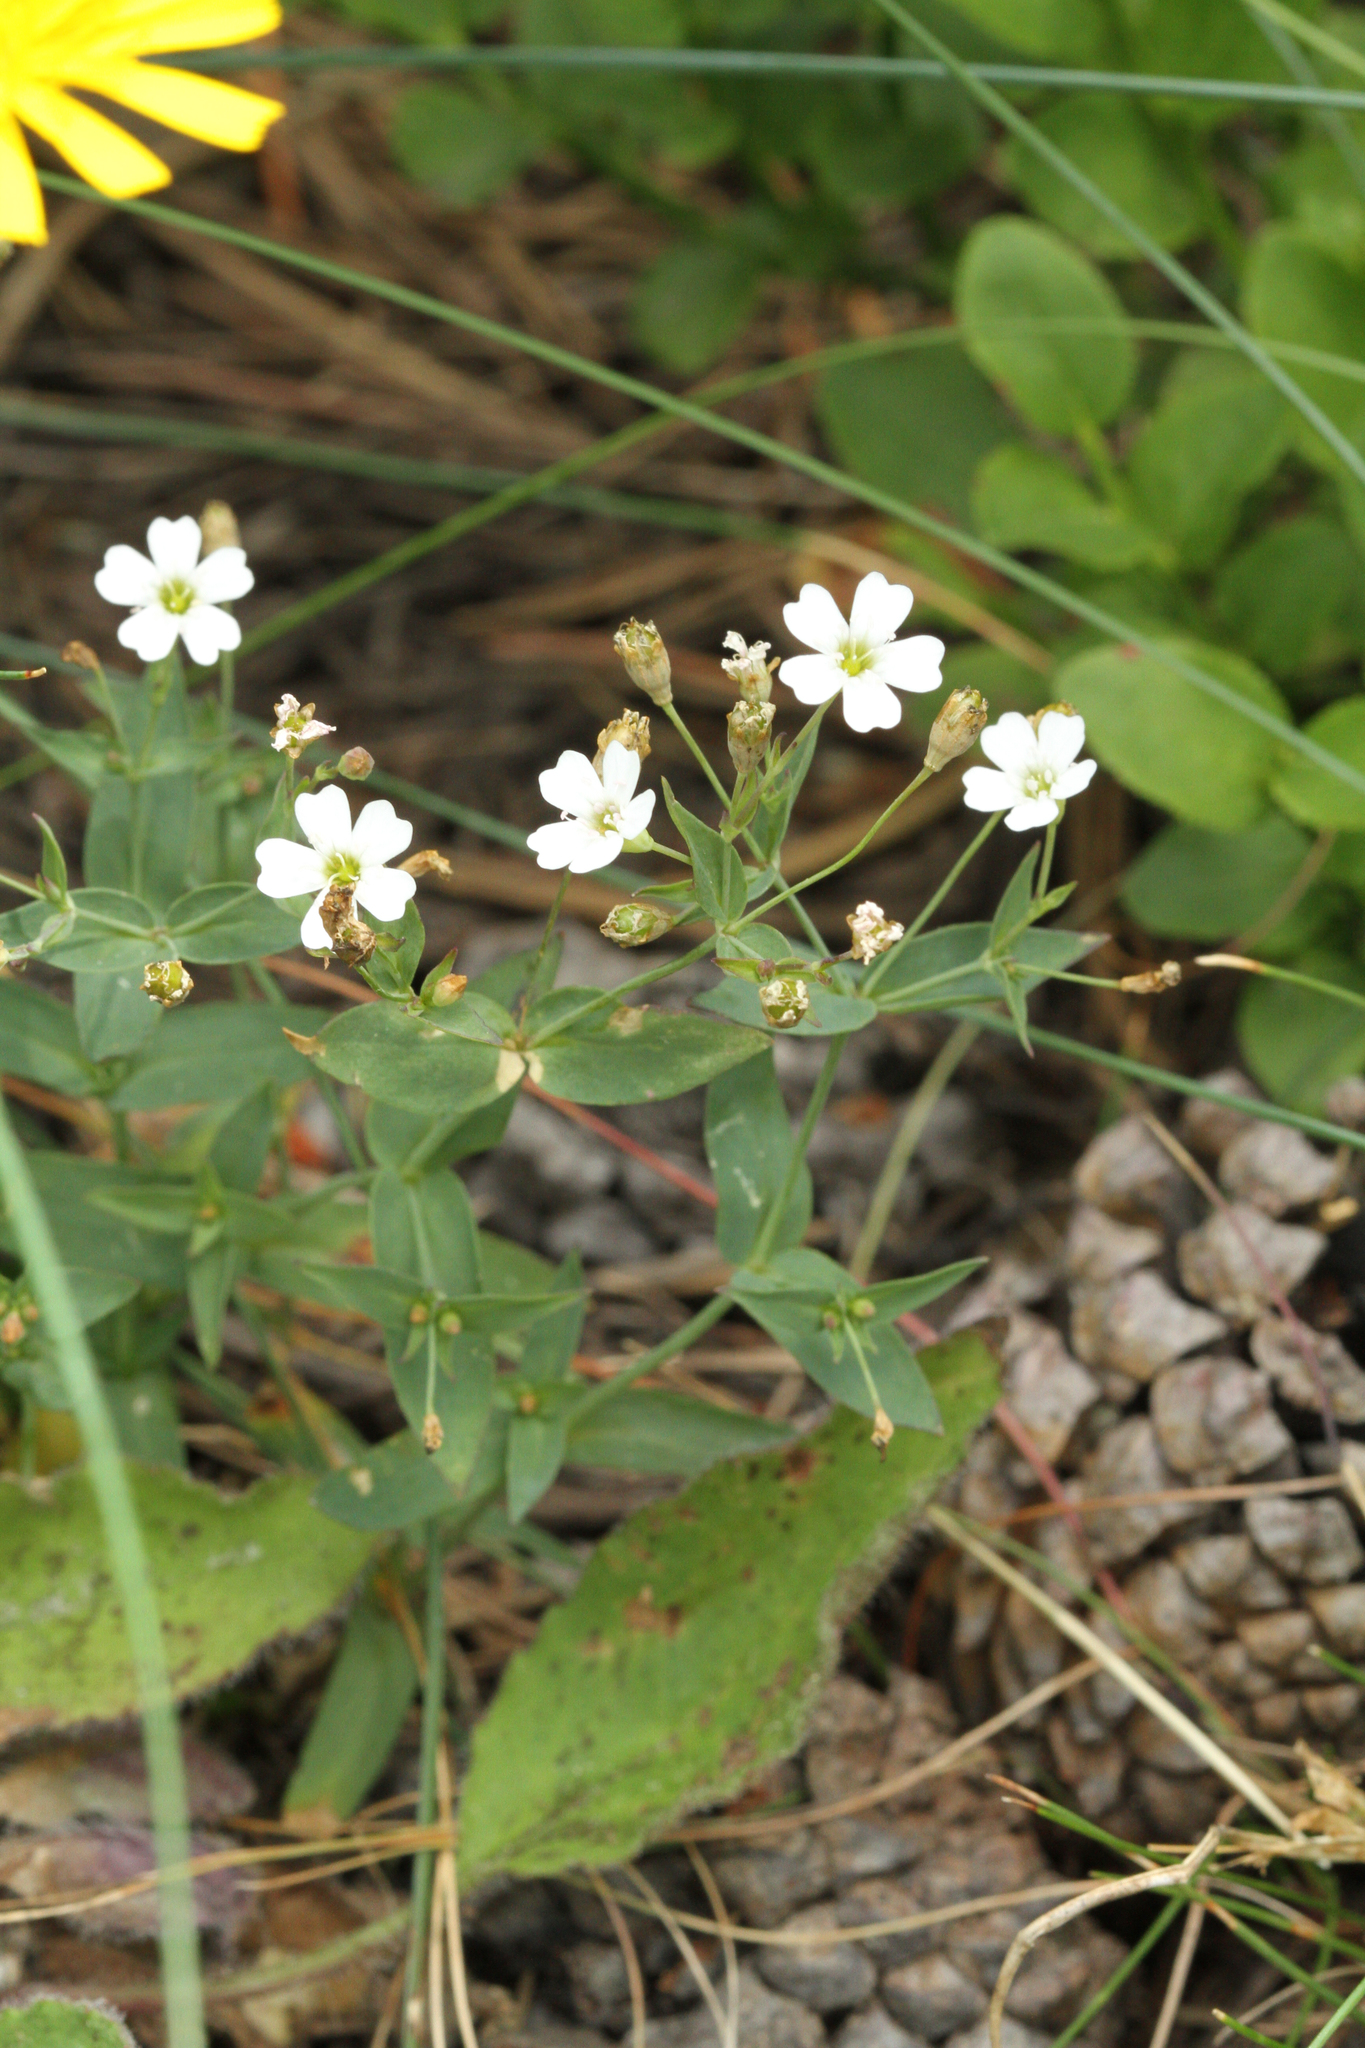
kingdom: Plantae
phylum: Tracheophyta
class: Magnoliopsida
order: Caryophyllales
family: Caryophyllaceae
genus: Atocion
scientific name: Atocion rupestre
